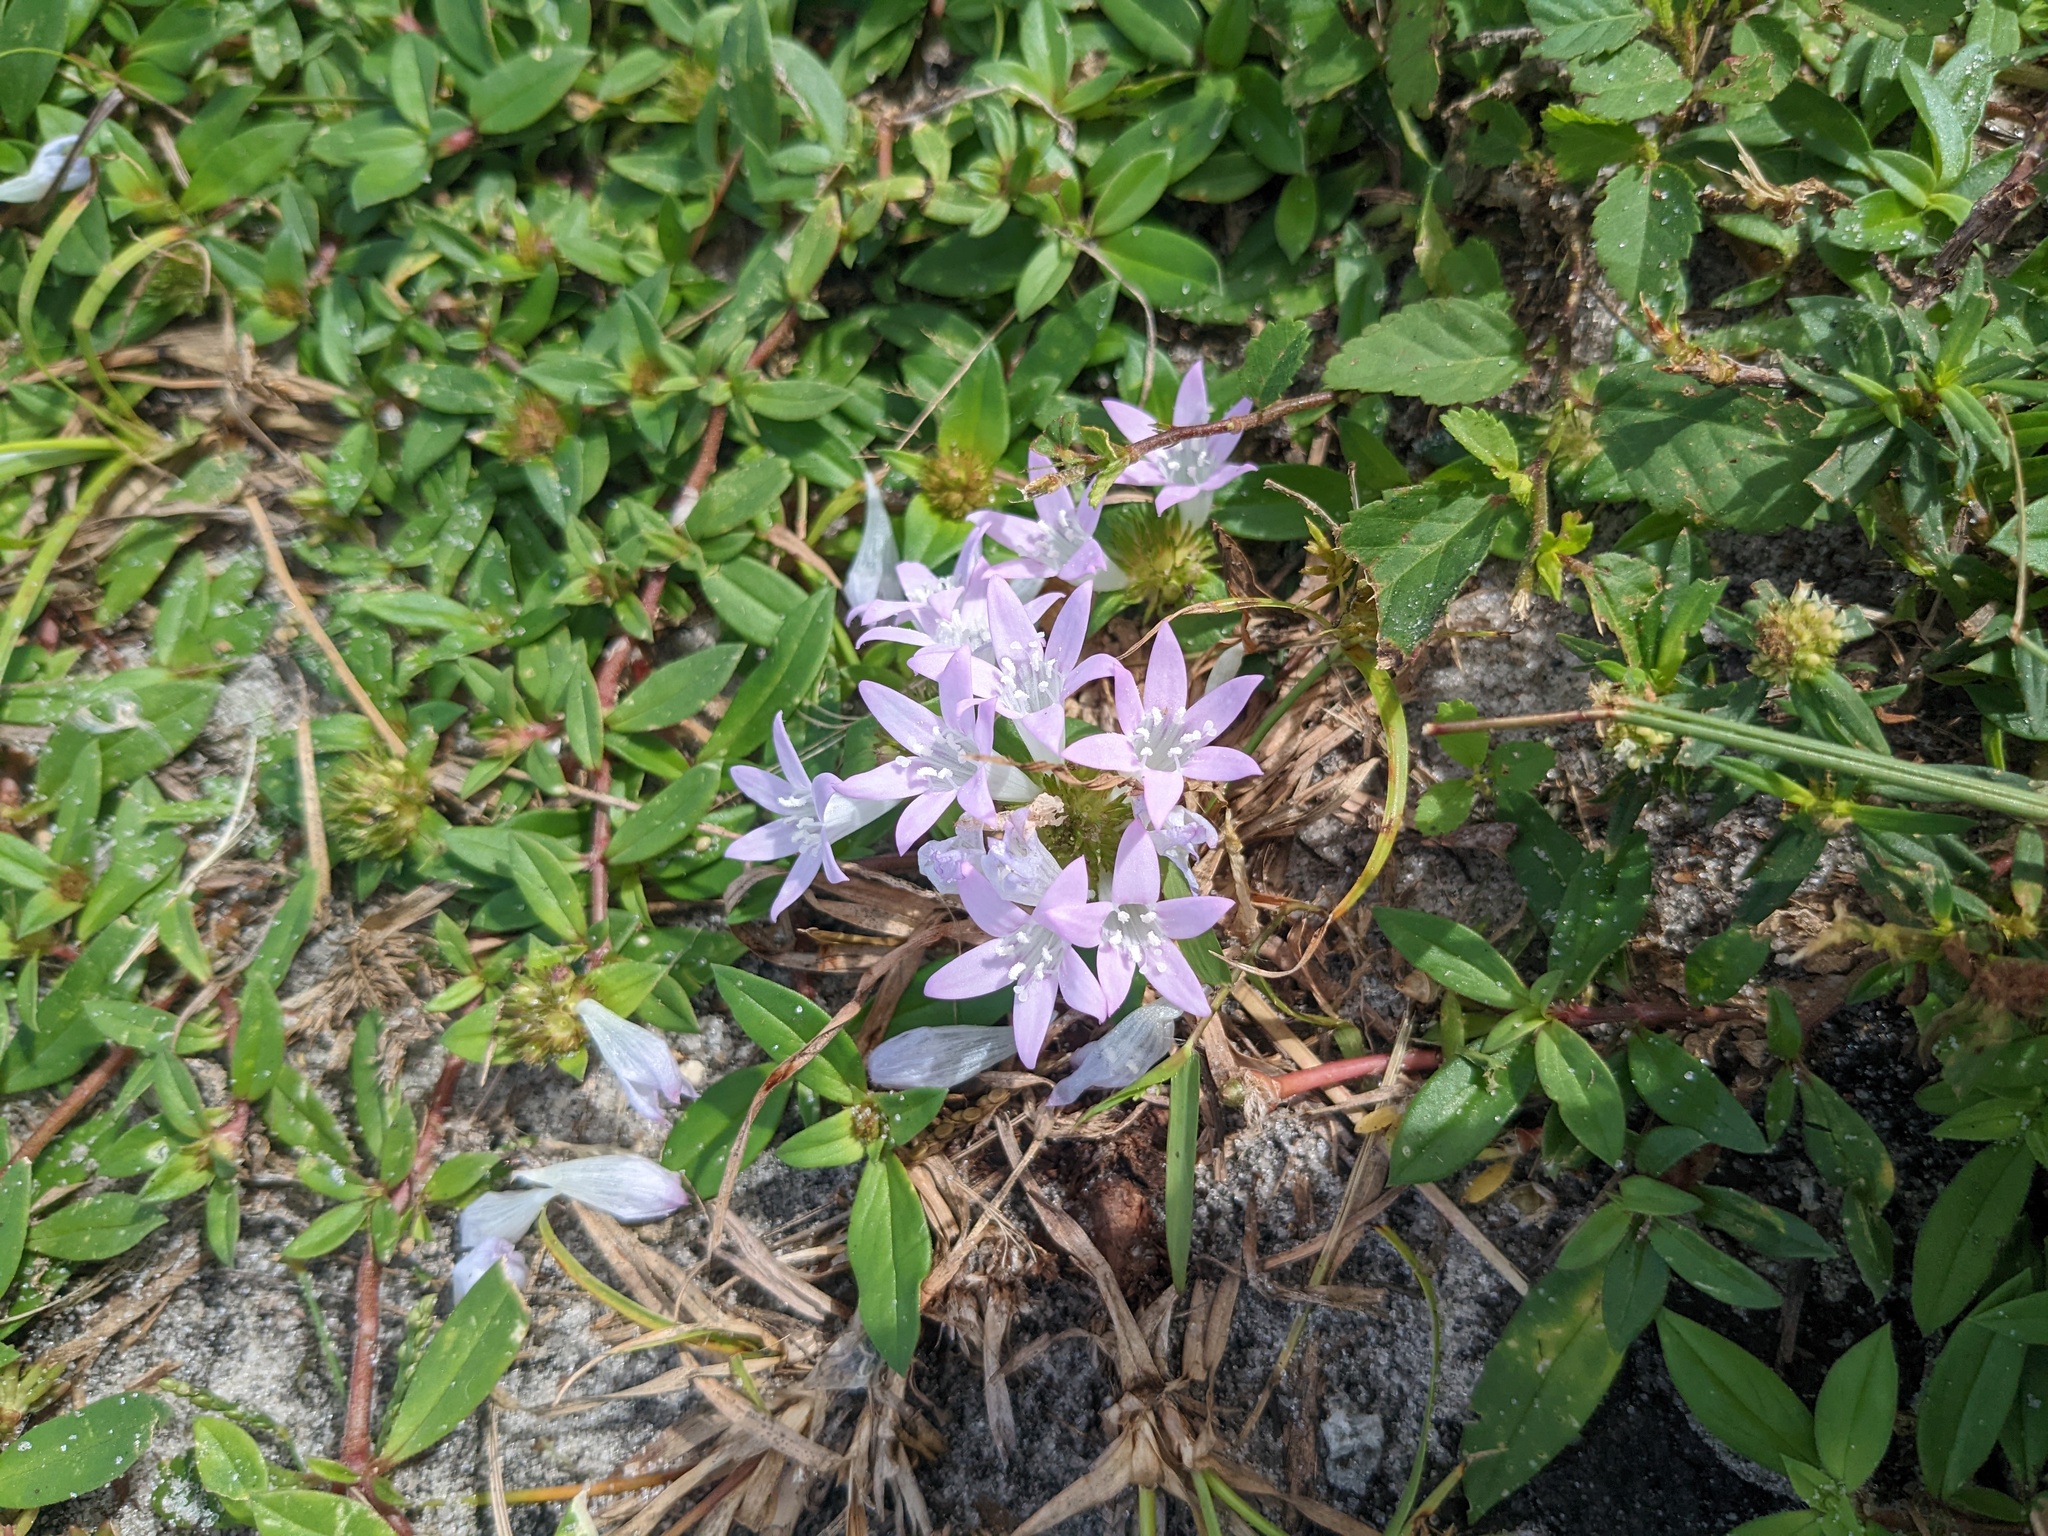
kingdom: Plantae
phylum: Tracheophyta
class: Magnoliopsida
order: Gentianales
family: Rubiaceae
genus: Richardia
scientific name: Richardia grandiflora
